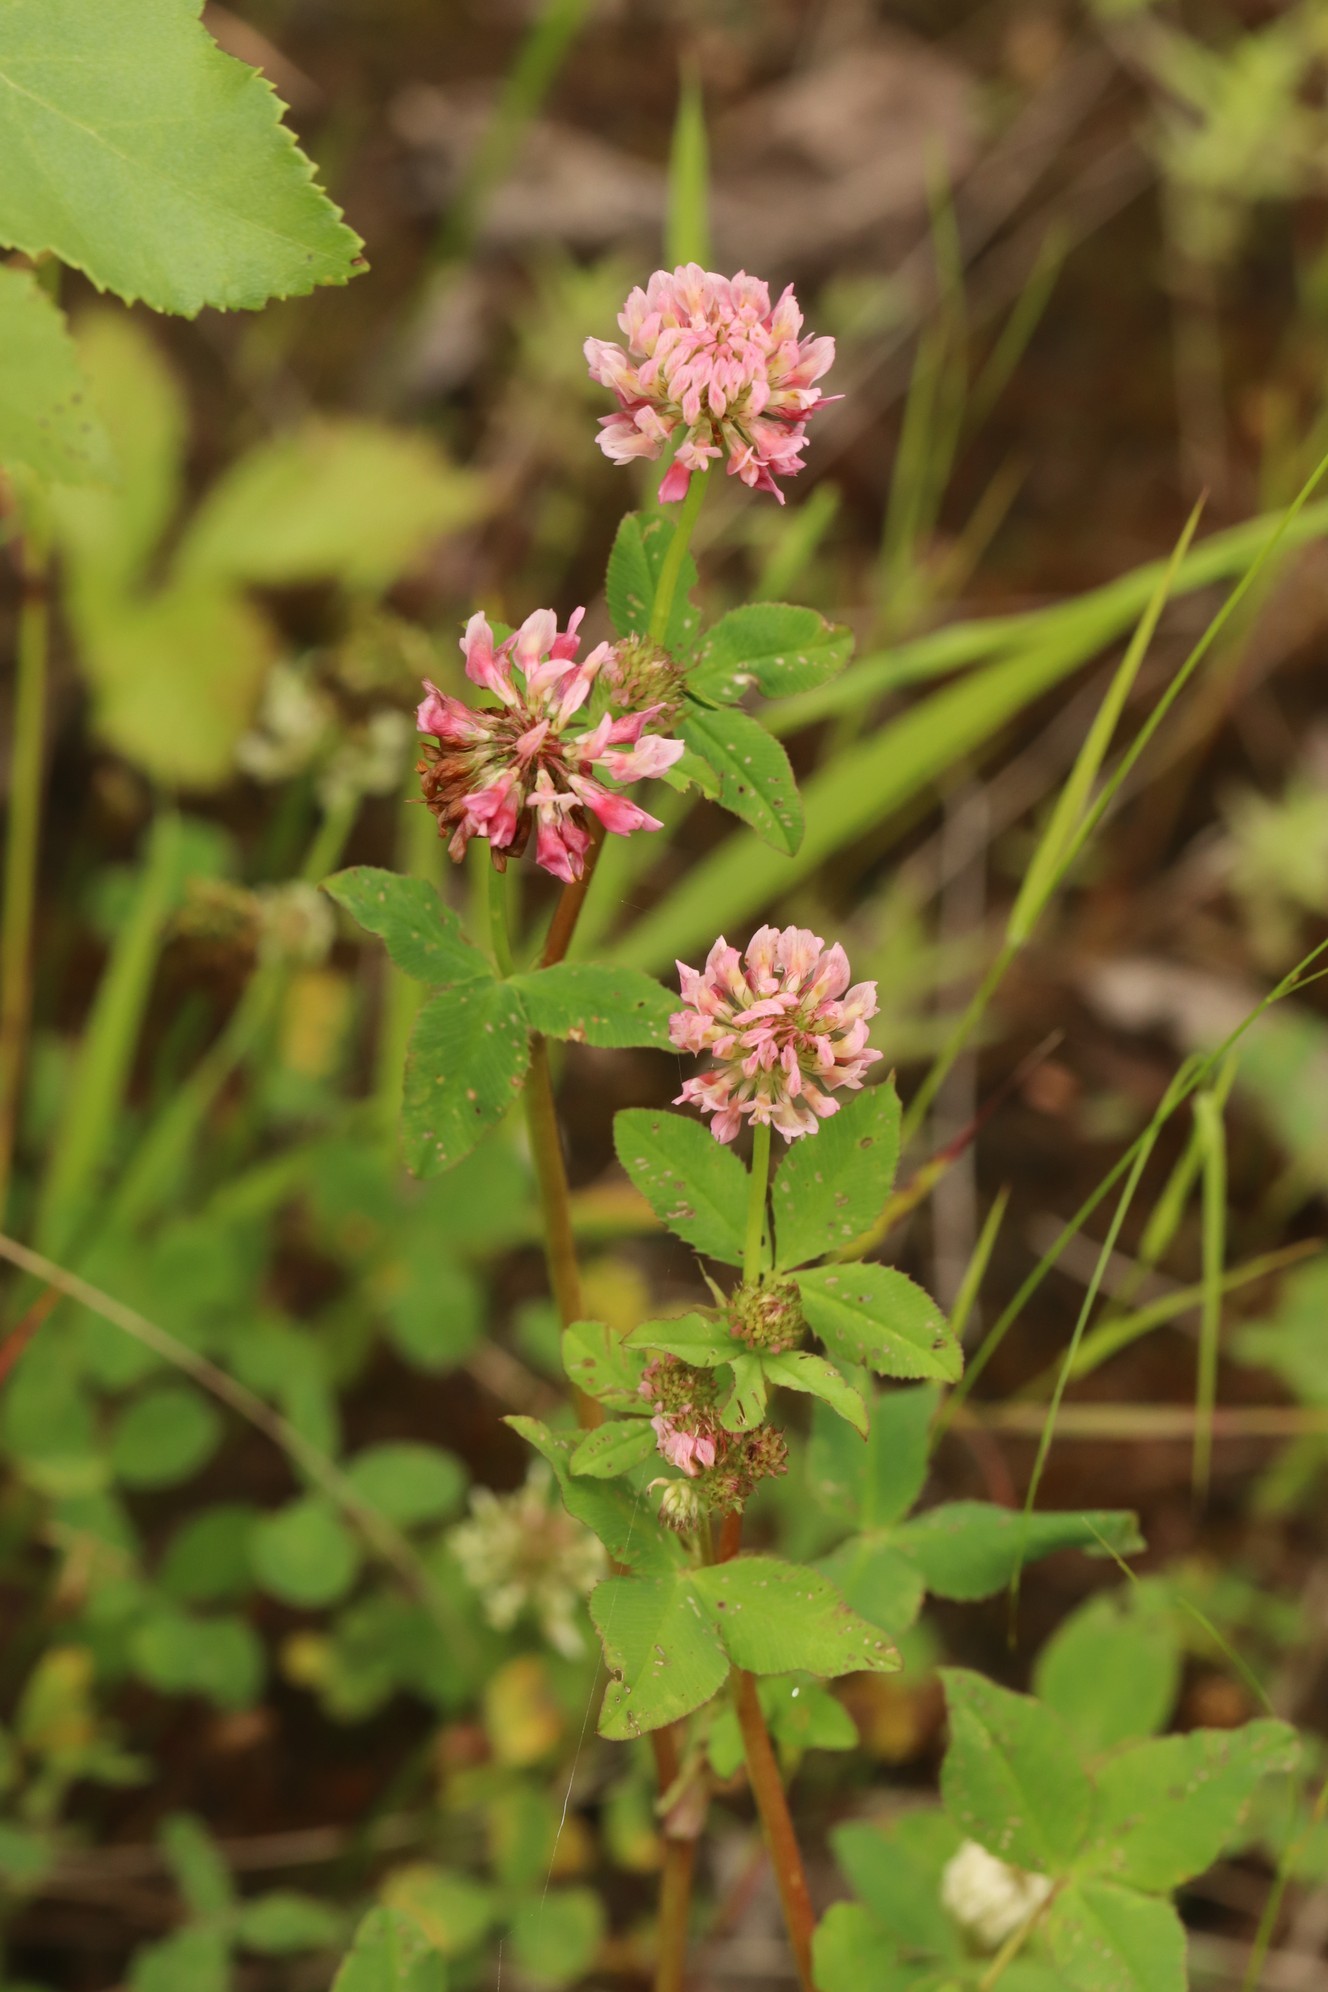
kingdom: Plantae
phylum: Tracheophyta
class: Magnoliopsida
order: Fabales
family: Fabaceae
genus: Trifolium
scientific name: Trifolium hybridum
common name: Alsike clover
